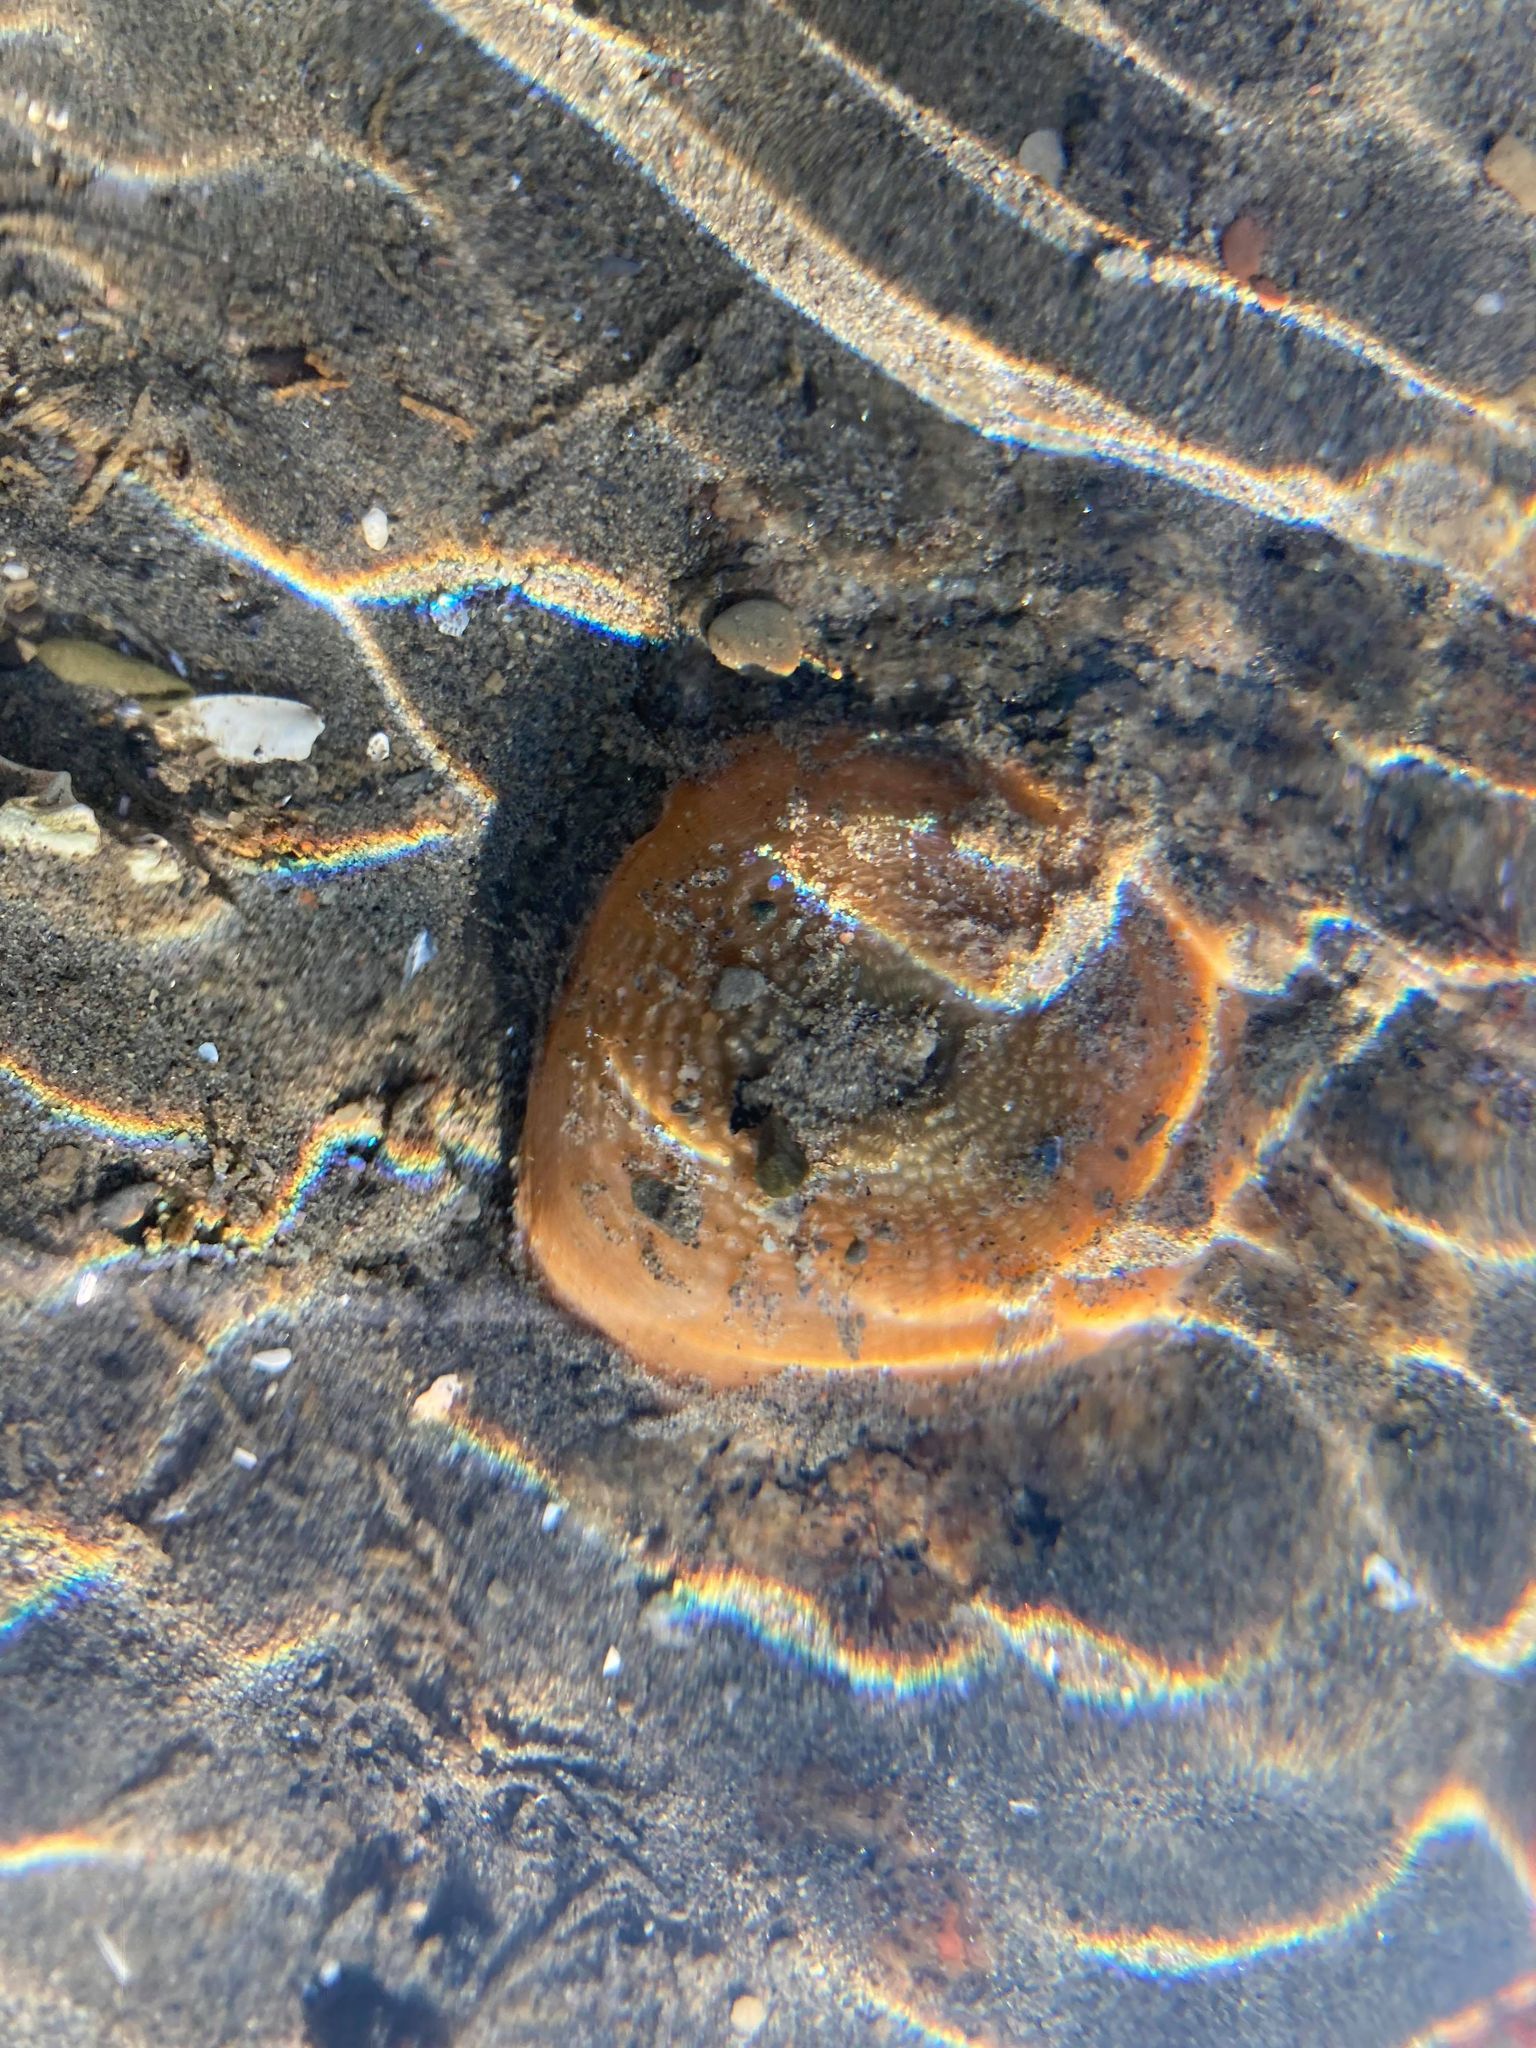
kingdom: Animalia
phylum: Cnidaria
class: Anthozoa
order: Actiniaria
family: Actiniidae
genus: Aulactinia
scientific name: Aulactinia stella
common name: Silver-spotted sea anemone
